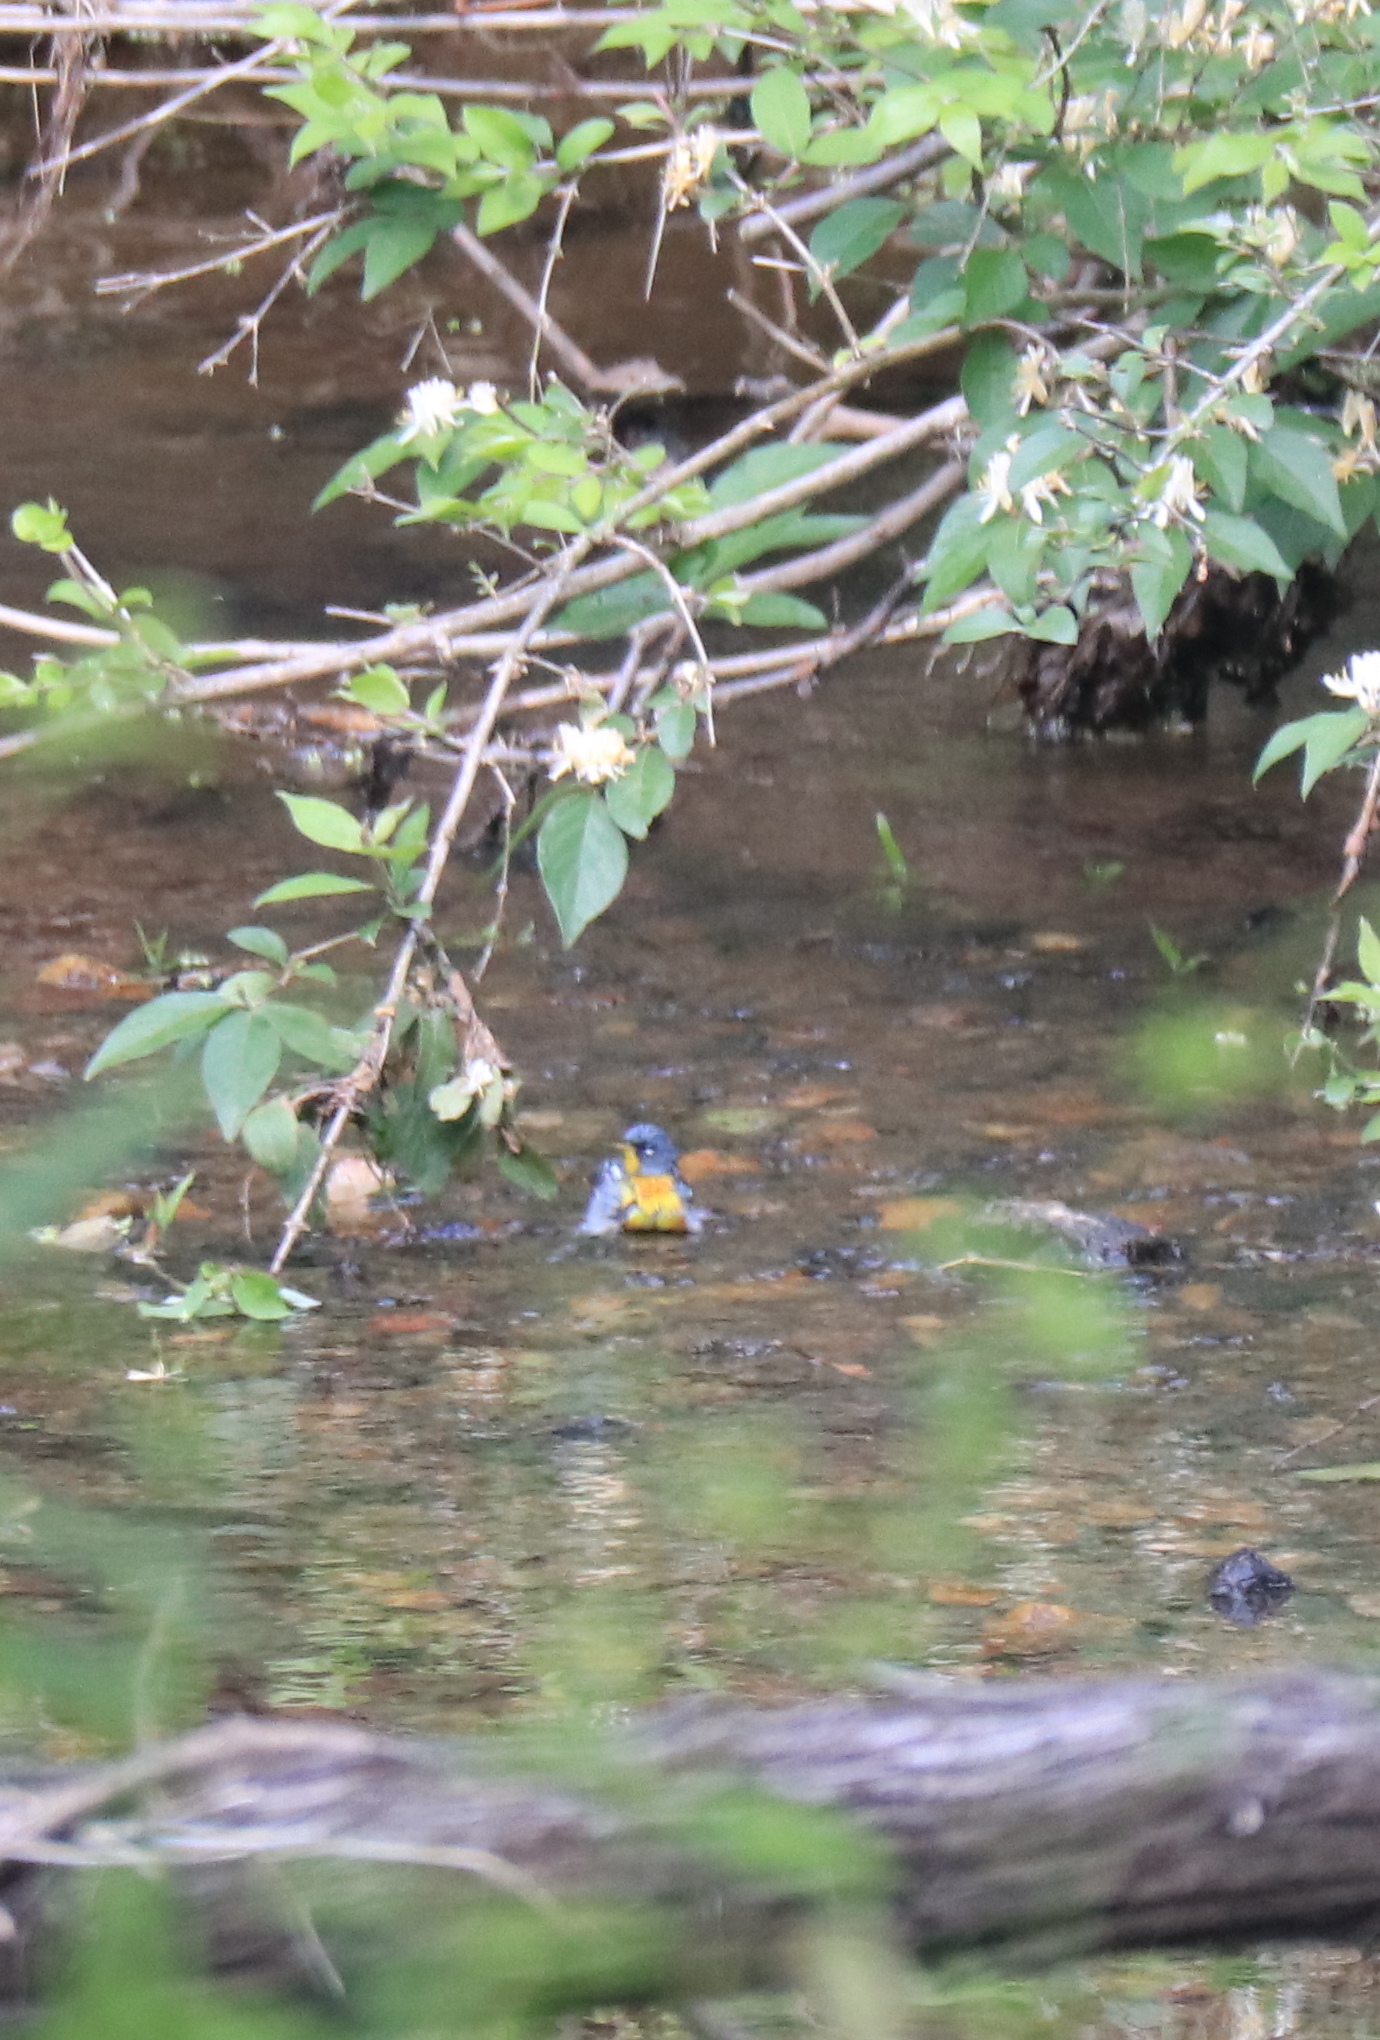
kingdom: Animalia
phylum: Chordata
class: Aves
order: Passeriformes
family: Parulidae
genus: Setophaga
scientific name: Setophaga americana
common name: Northern parula
